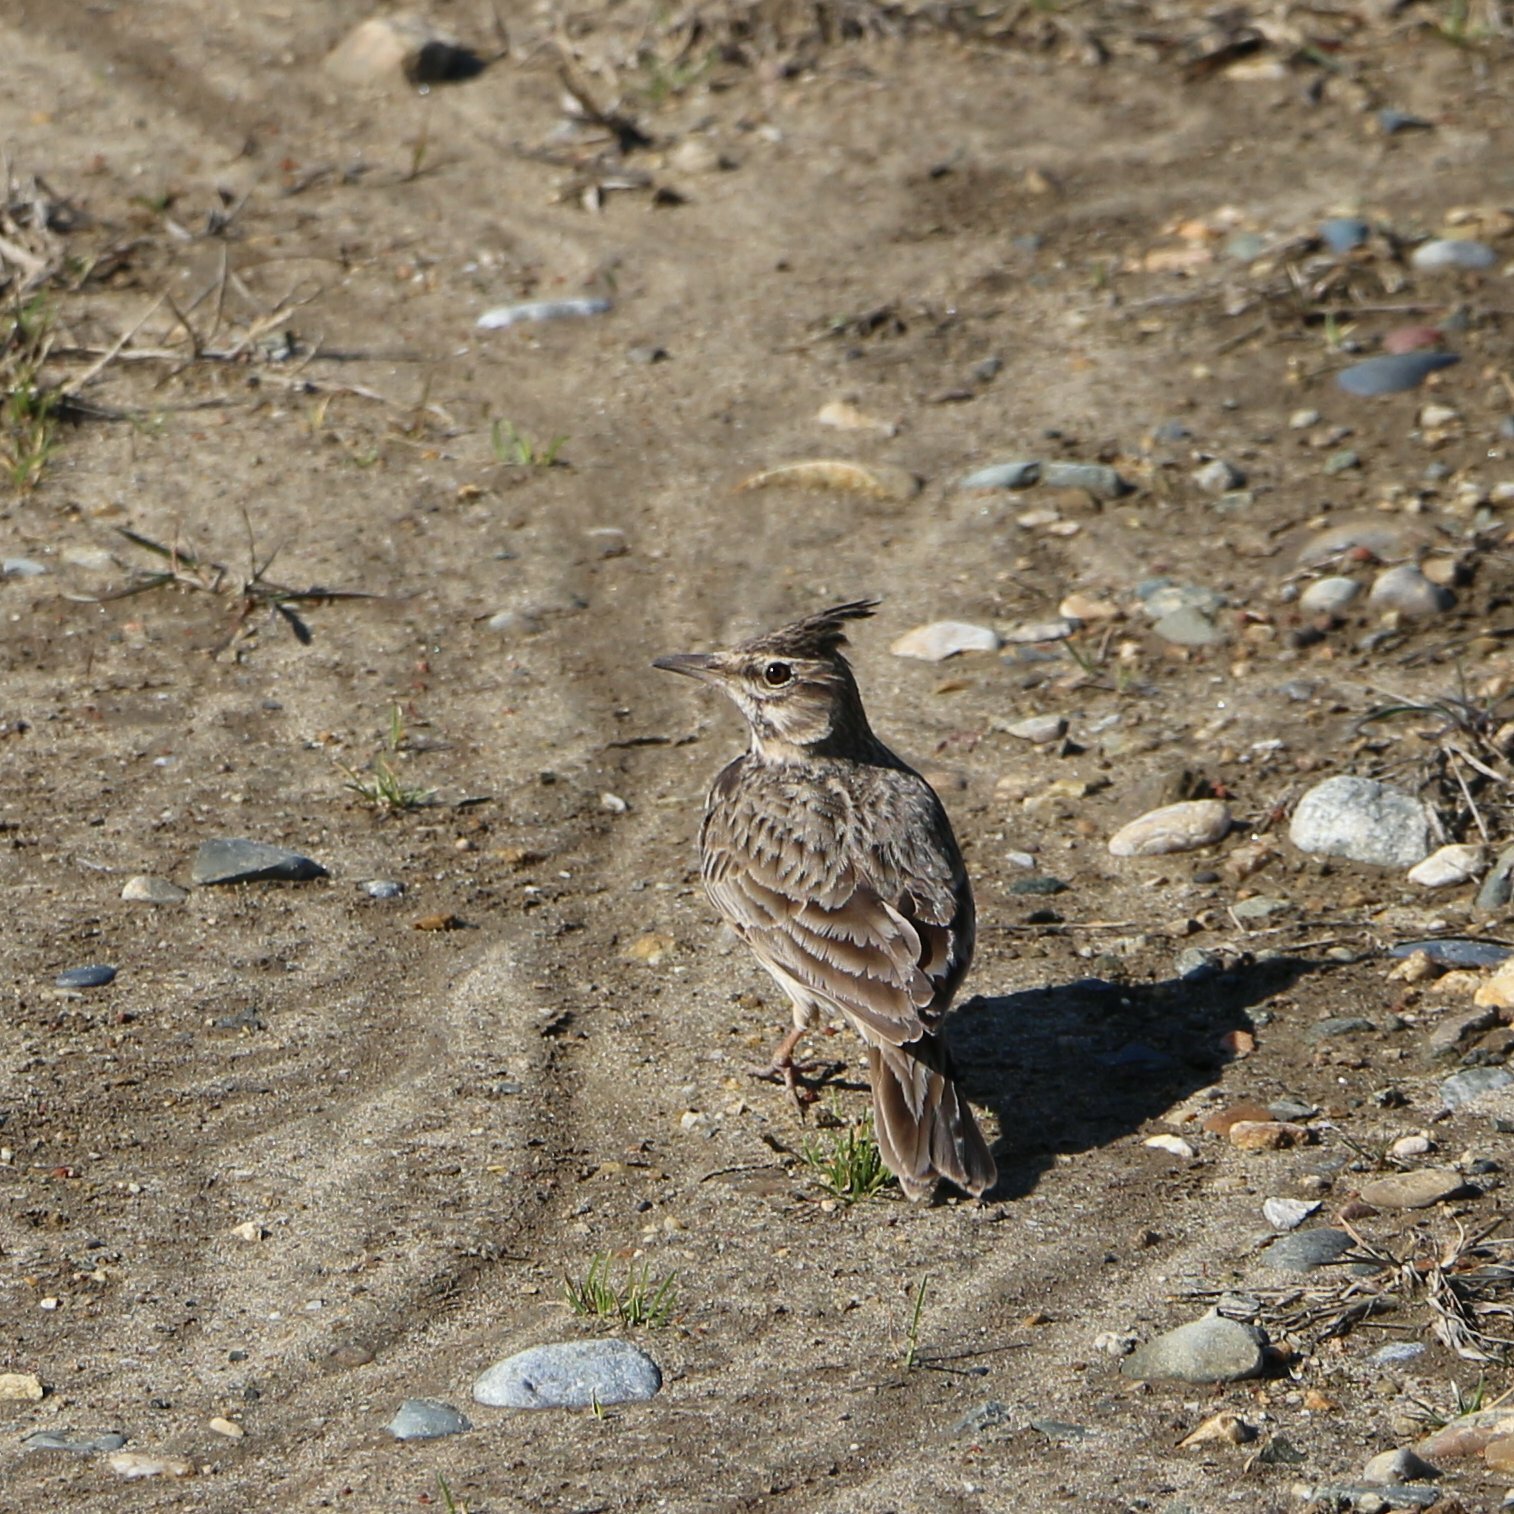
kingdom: Animalia
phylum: Chordata
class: Aves
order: Passeriformes
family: Alaudidae
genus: Galerida
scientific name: Galerida cristata
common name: Crested lark
